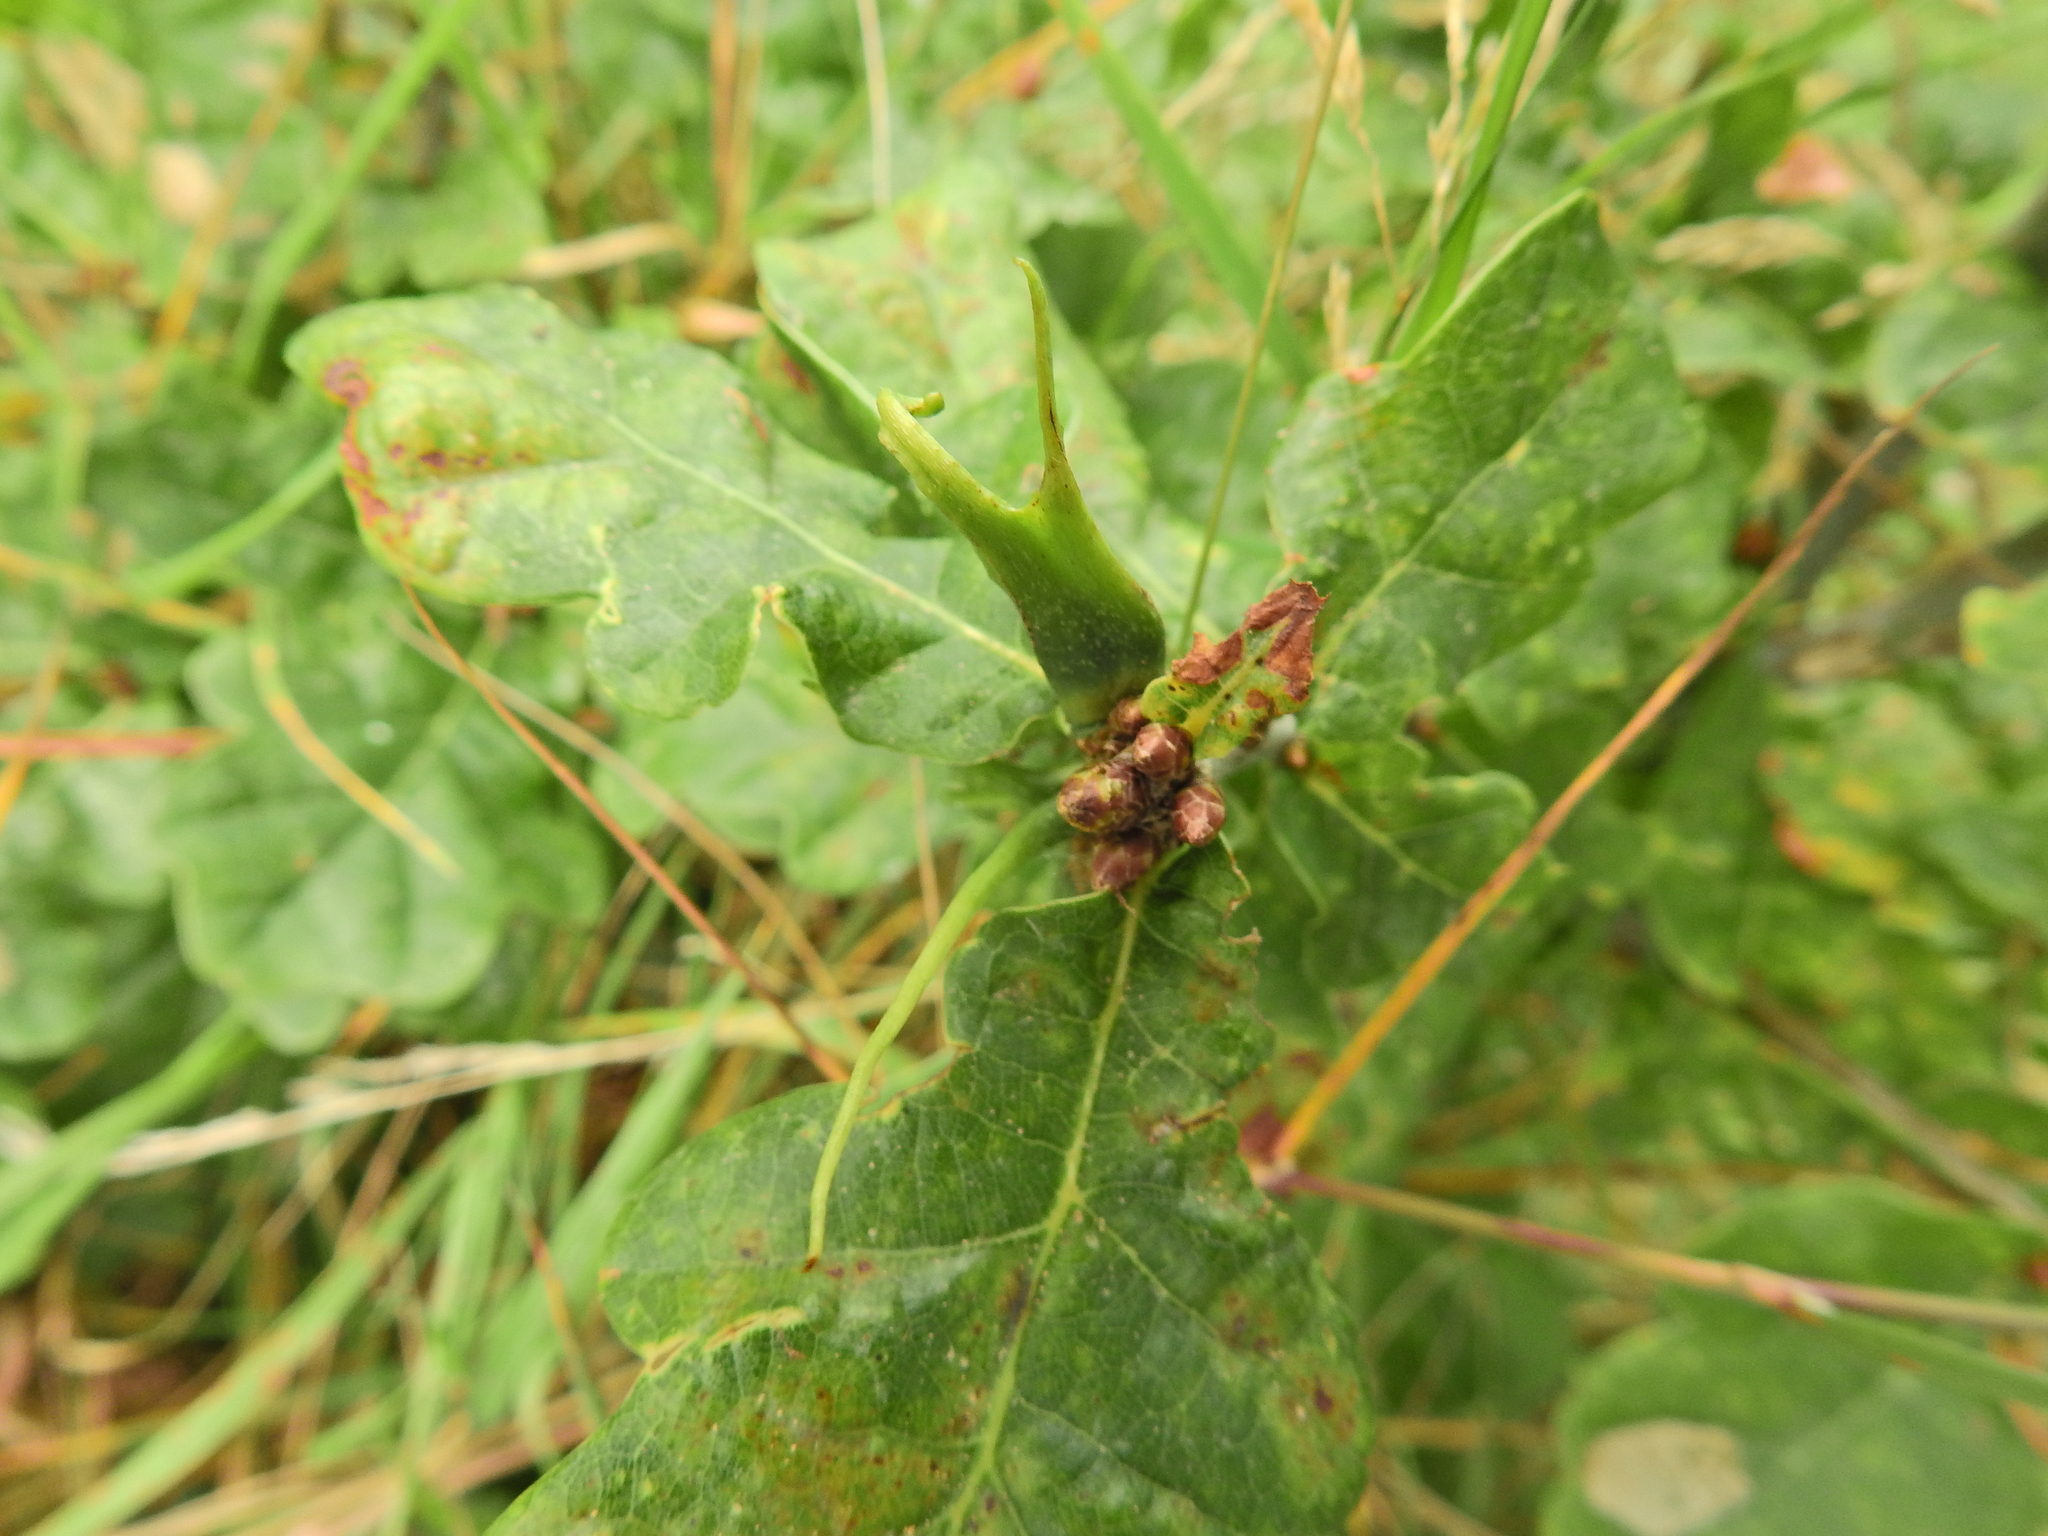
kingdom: Animalia
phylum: Arthropoda
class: Insecta
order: Hymenoptera
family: Cynipidae
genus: Andricus
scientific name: Andricus aries
